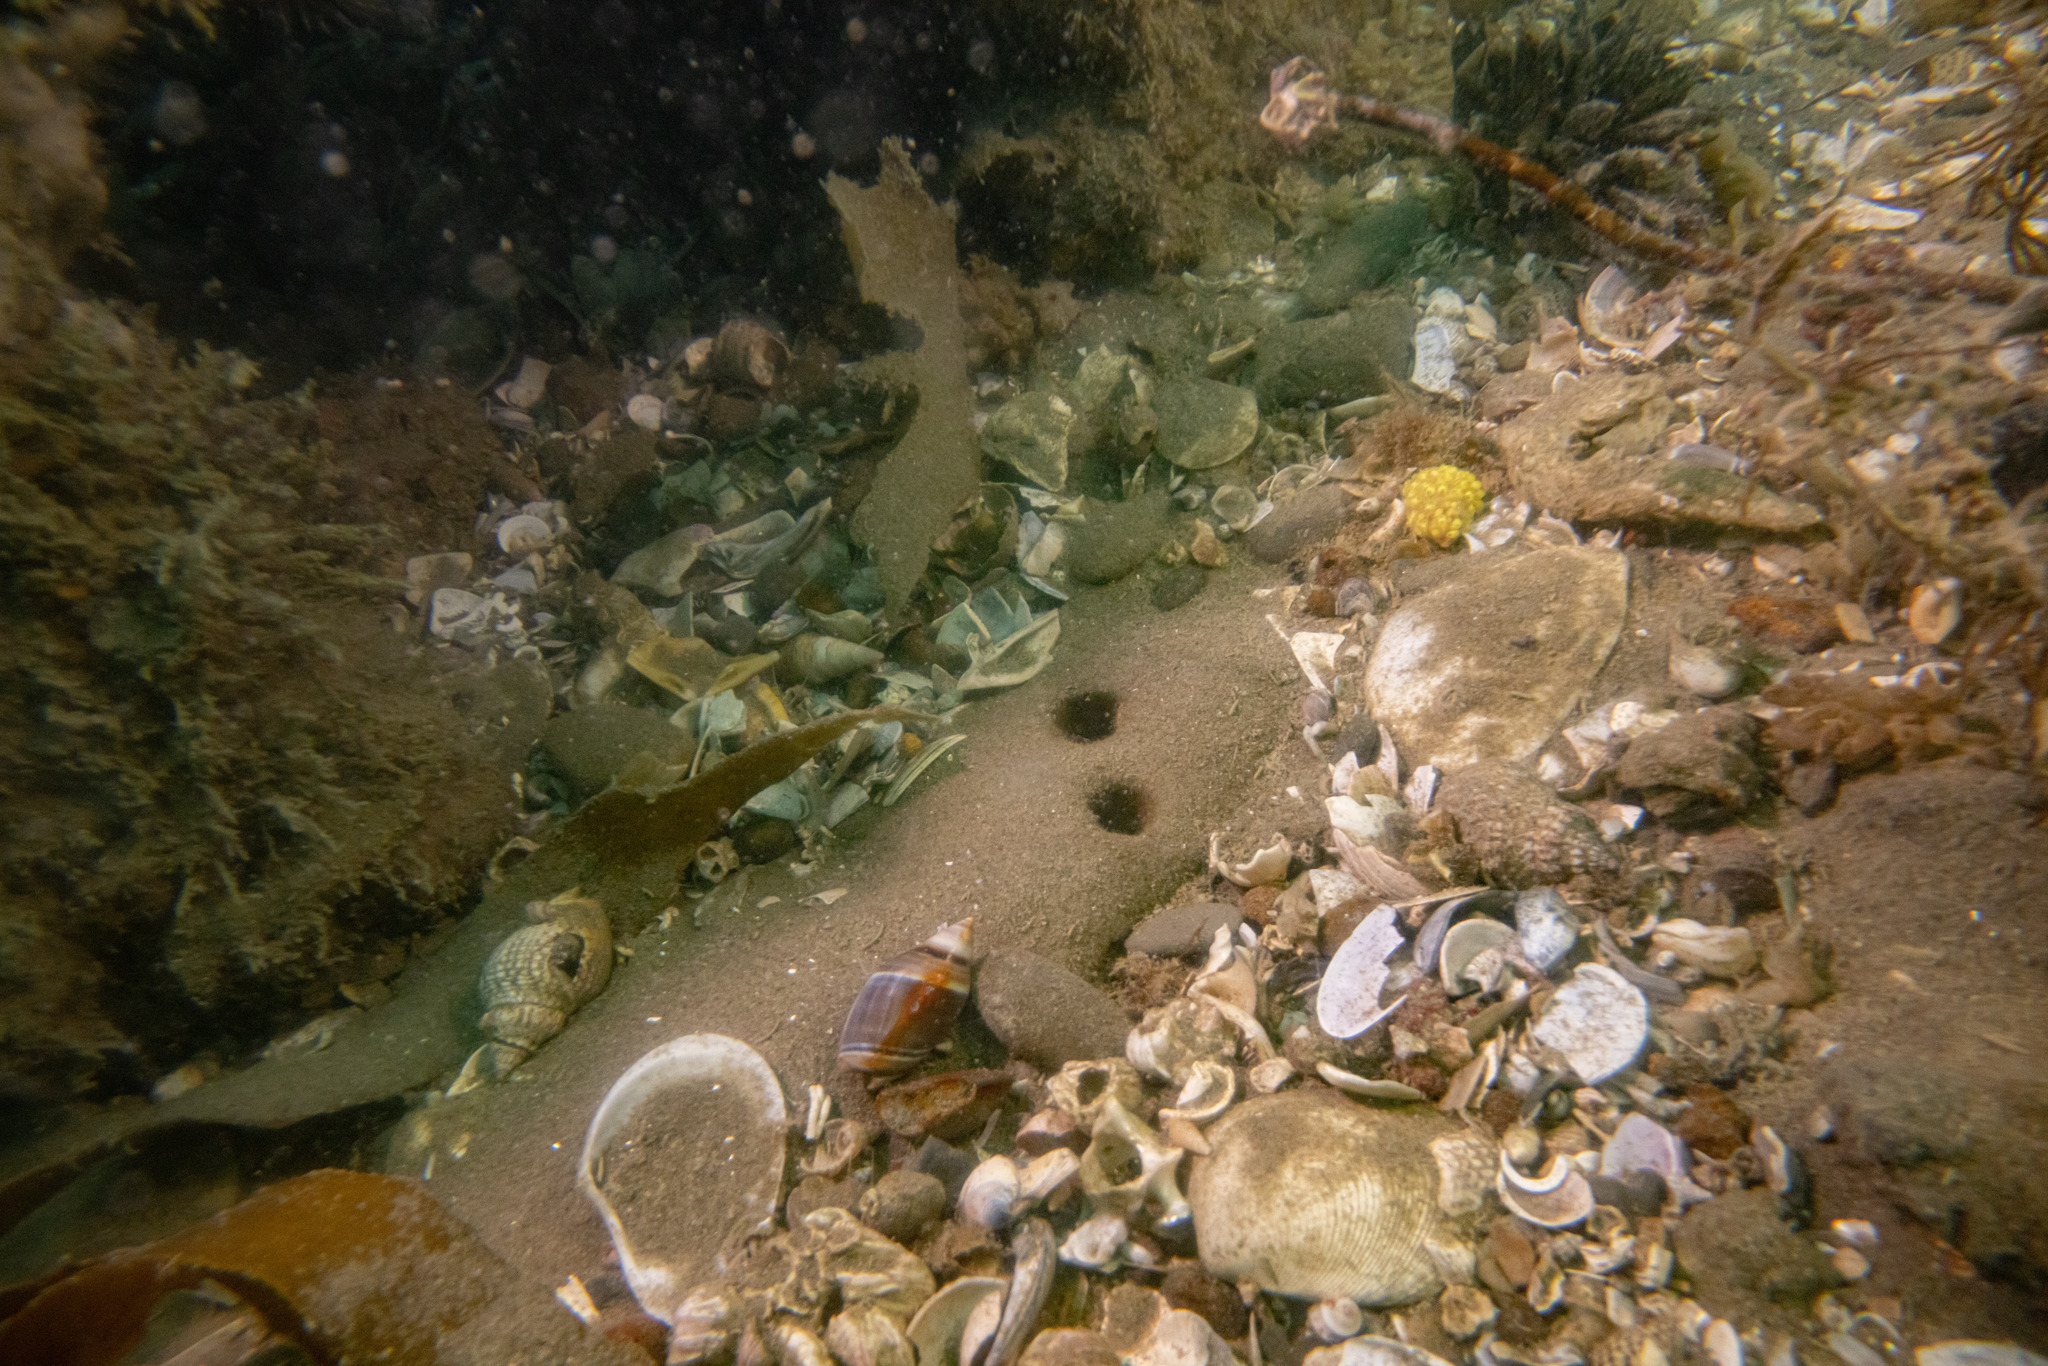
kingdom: Animalia
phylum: Mollusca
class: Gastropoda
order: Neogastropoda
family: Ancillariidae
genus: Amalda
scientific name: Amalda australis
